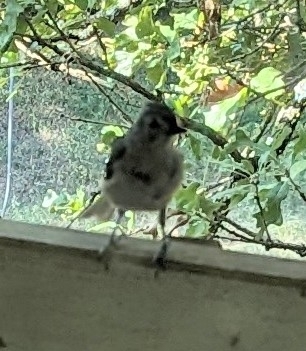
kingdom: Animalia
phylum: Chordata
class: Aves
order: Passeriformes
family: Paridae
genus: Baeolophus
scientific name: Baeolophus bicolor
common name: Tufted titmouse
